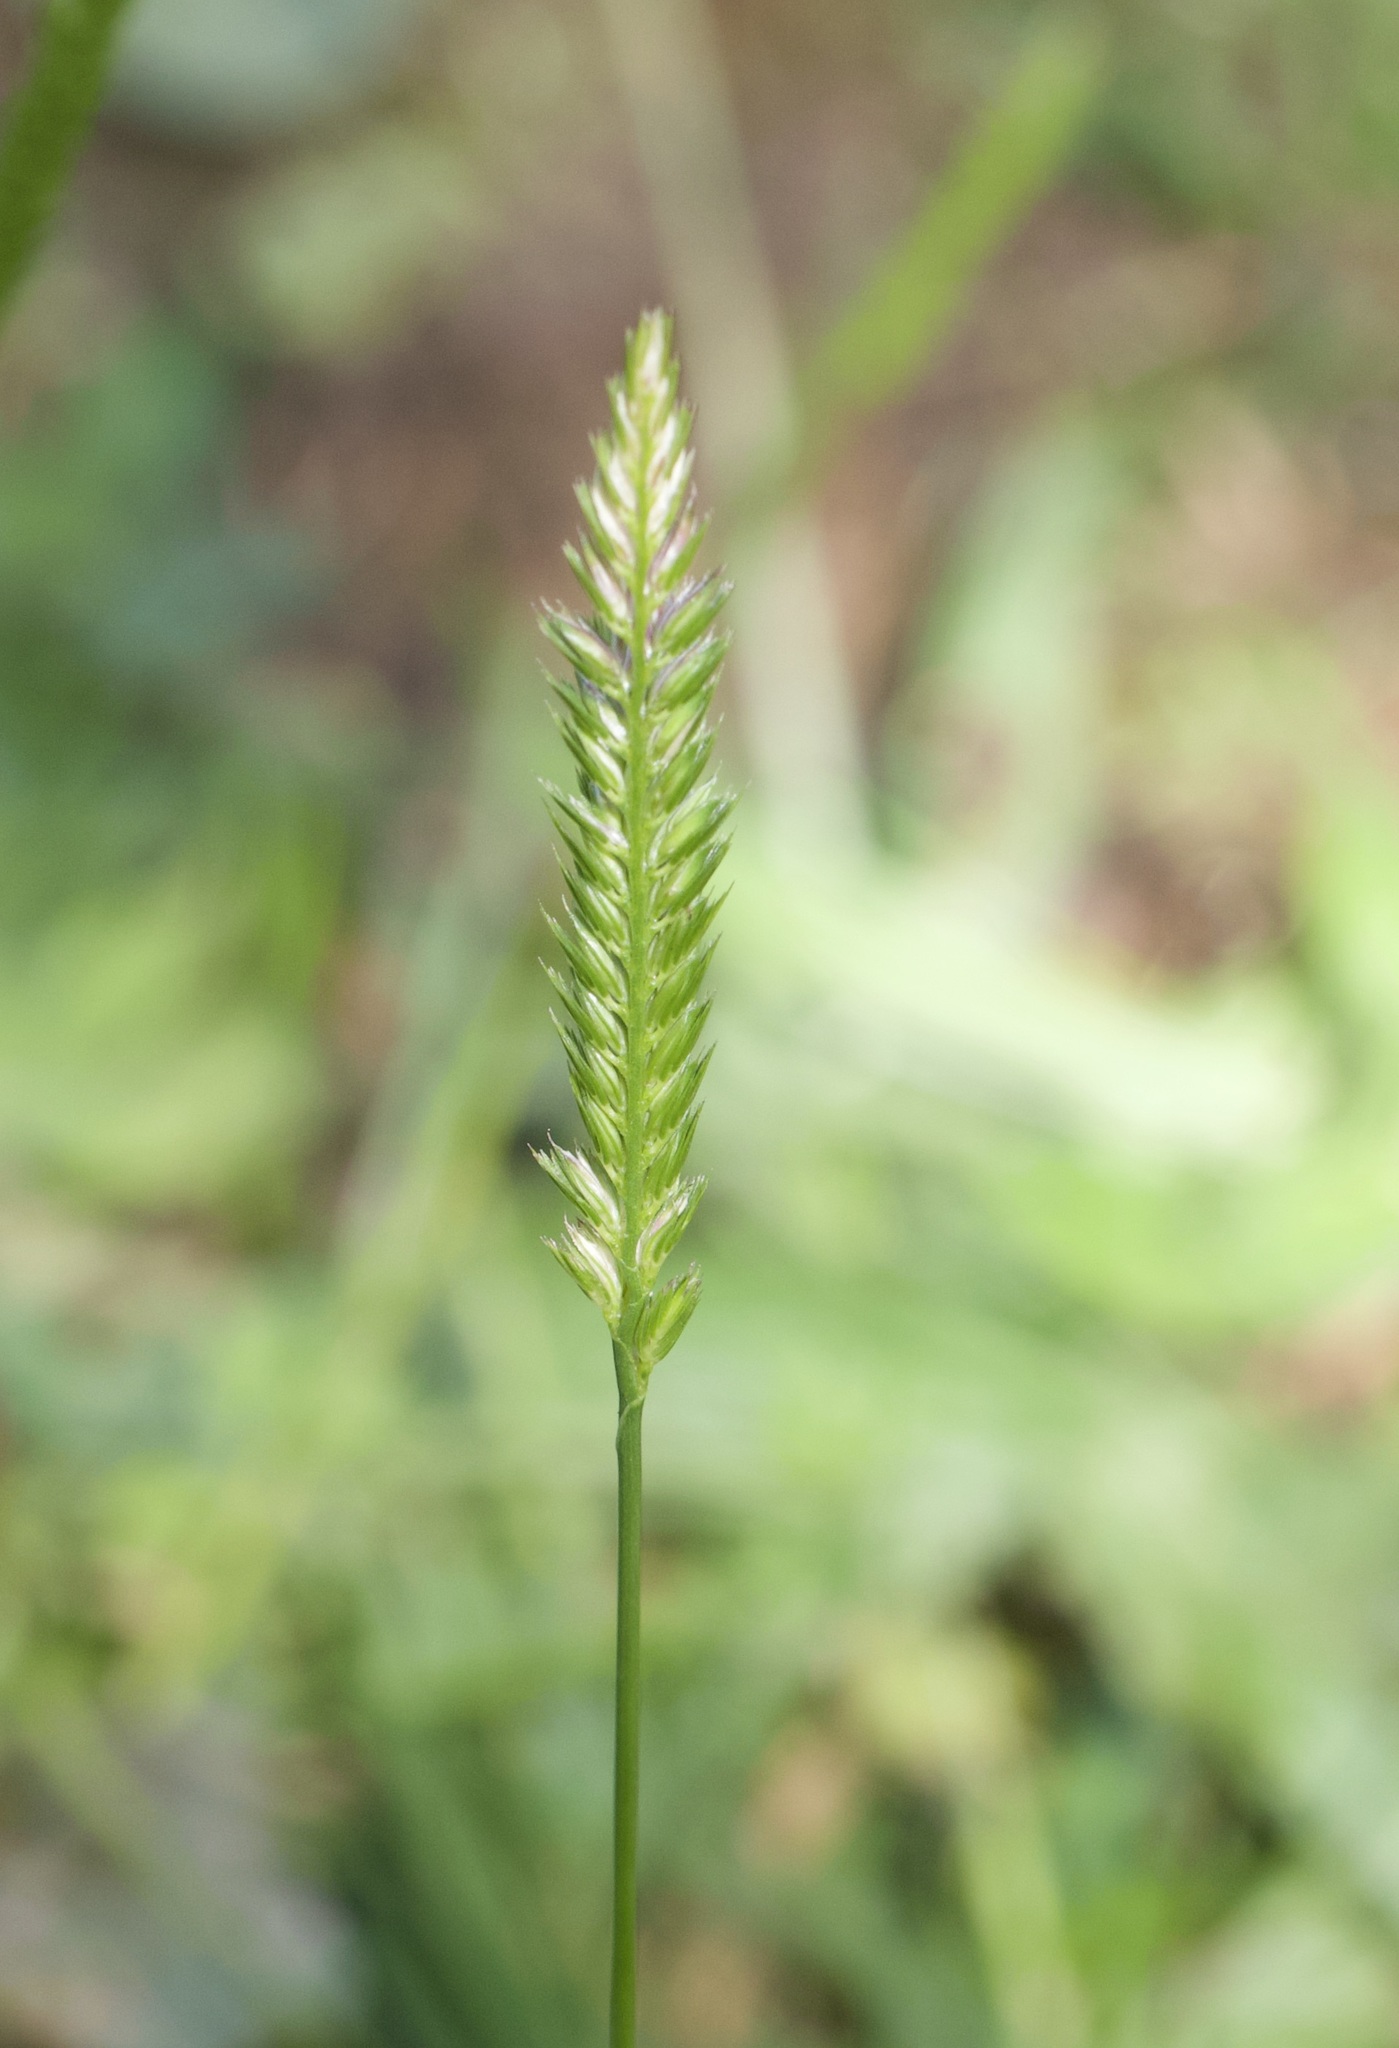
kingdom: Plantae
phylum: Tracheophyta
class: Liliopsida
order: Poales
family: Poaceae
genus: Cynosurus
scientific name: Cynosurus cristatus
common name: Crested dog's-tail
